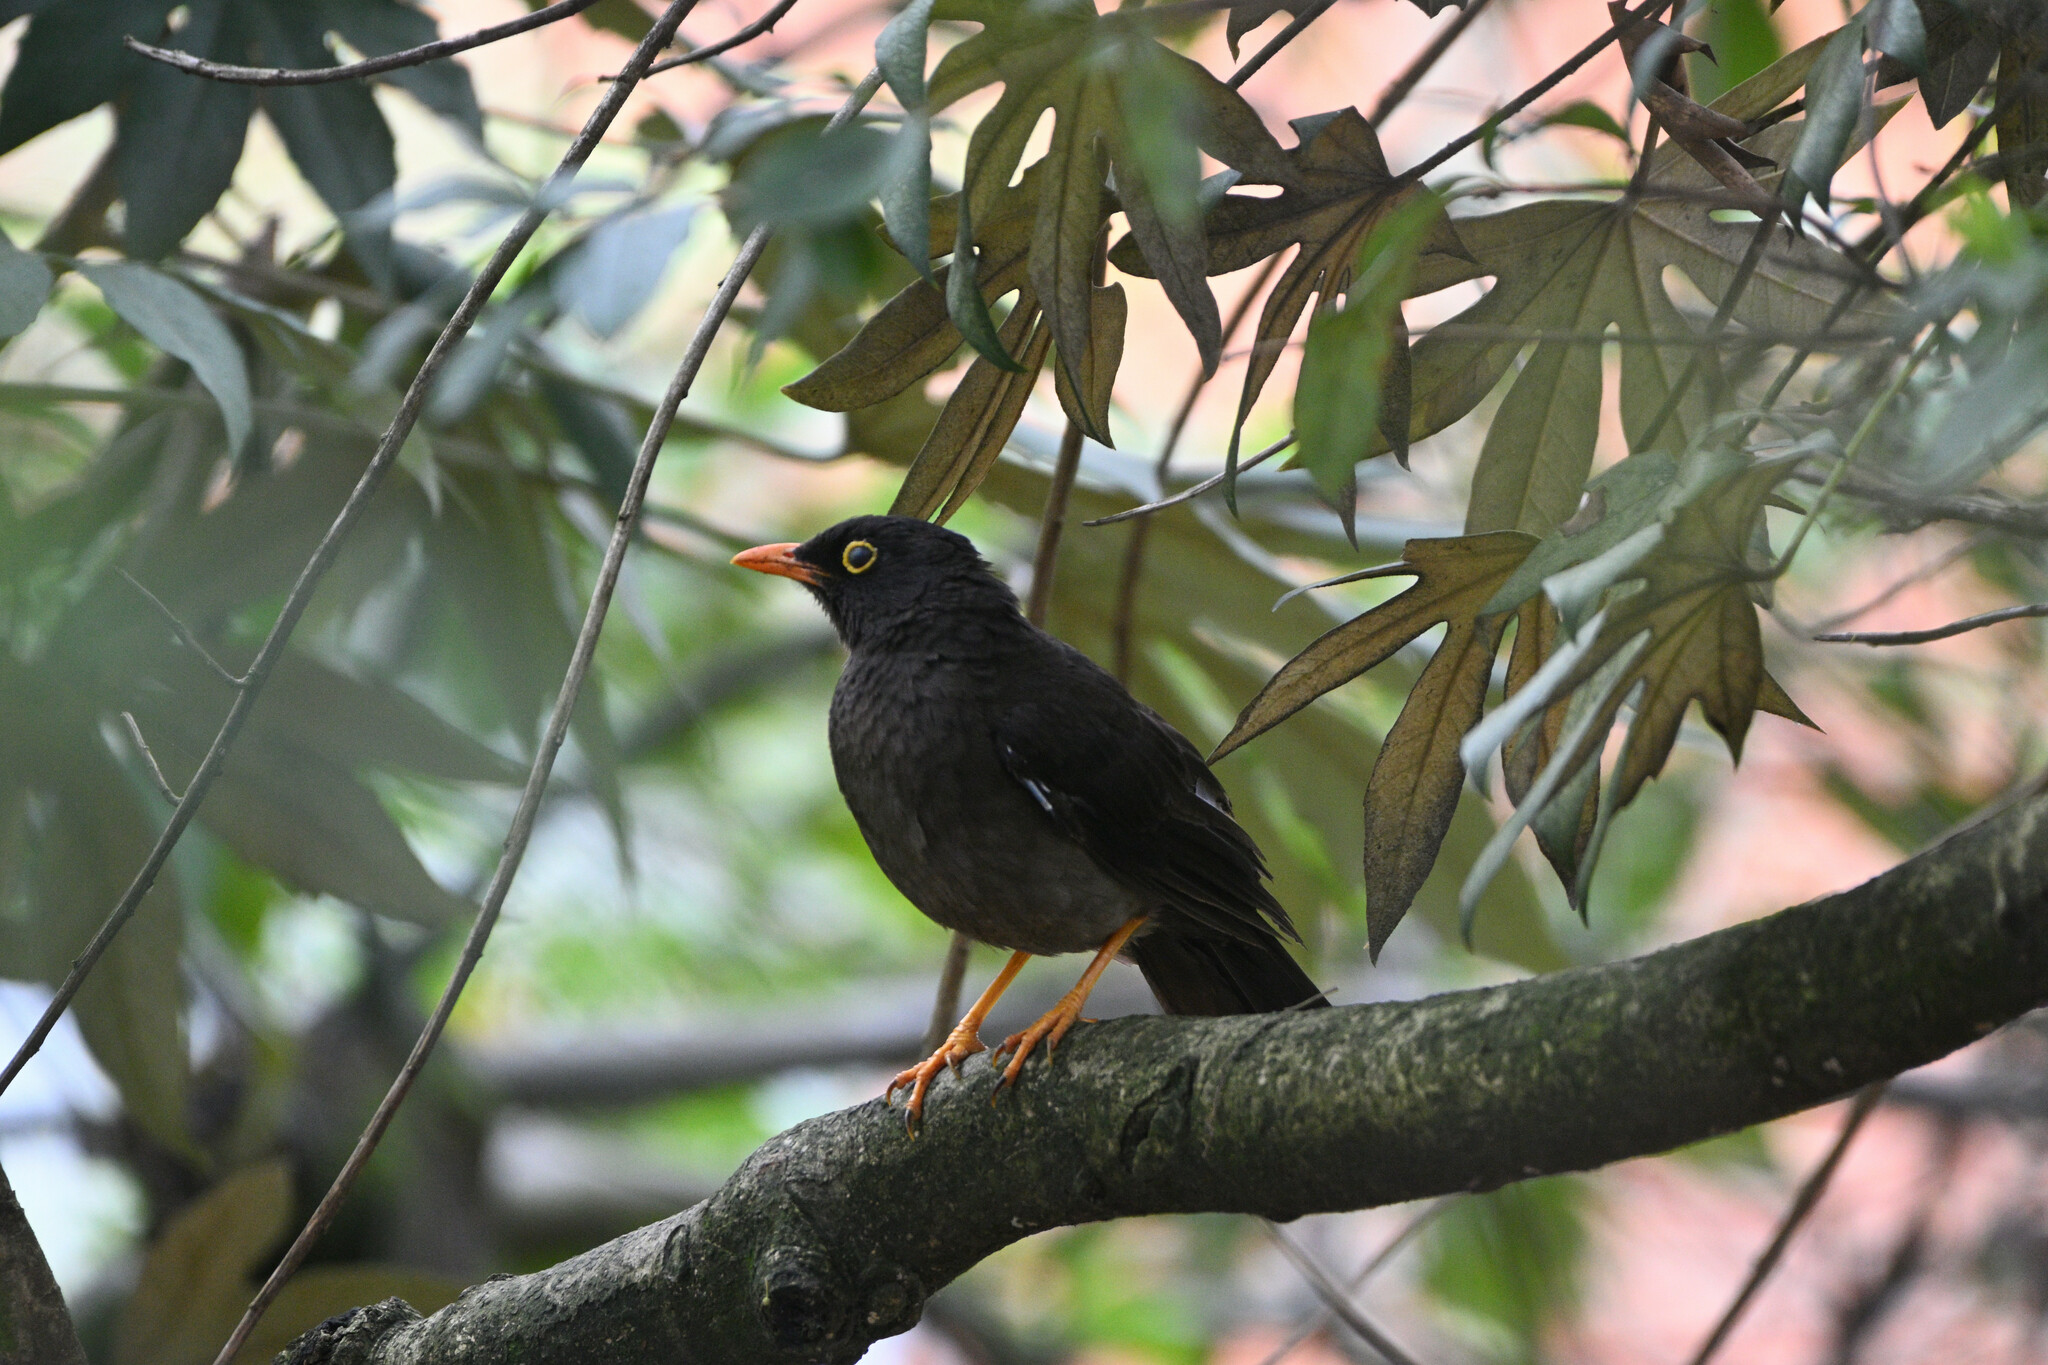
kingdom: Animalia
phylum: Chordata
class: Aves
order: Passeriformes
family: Turdidae
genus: Turdus
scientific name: Turdus fuscater
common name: Great thrush
